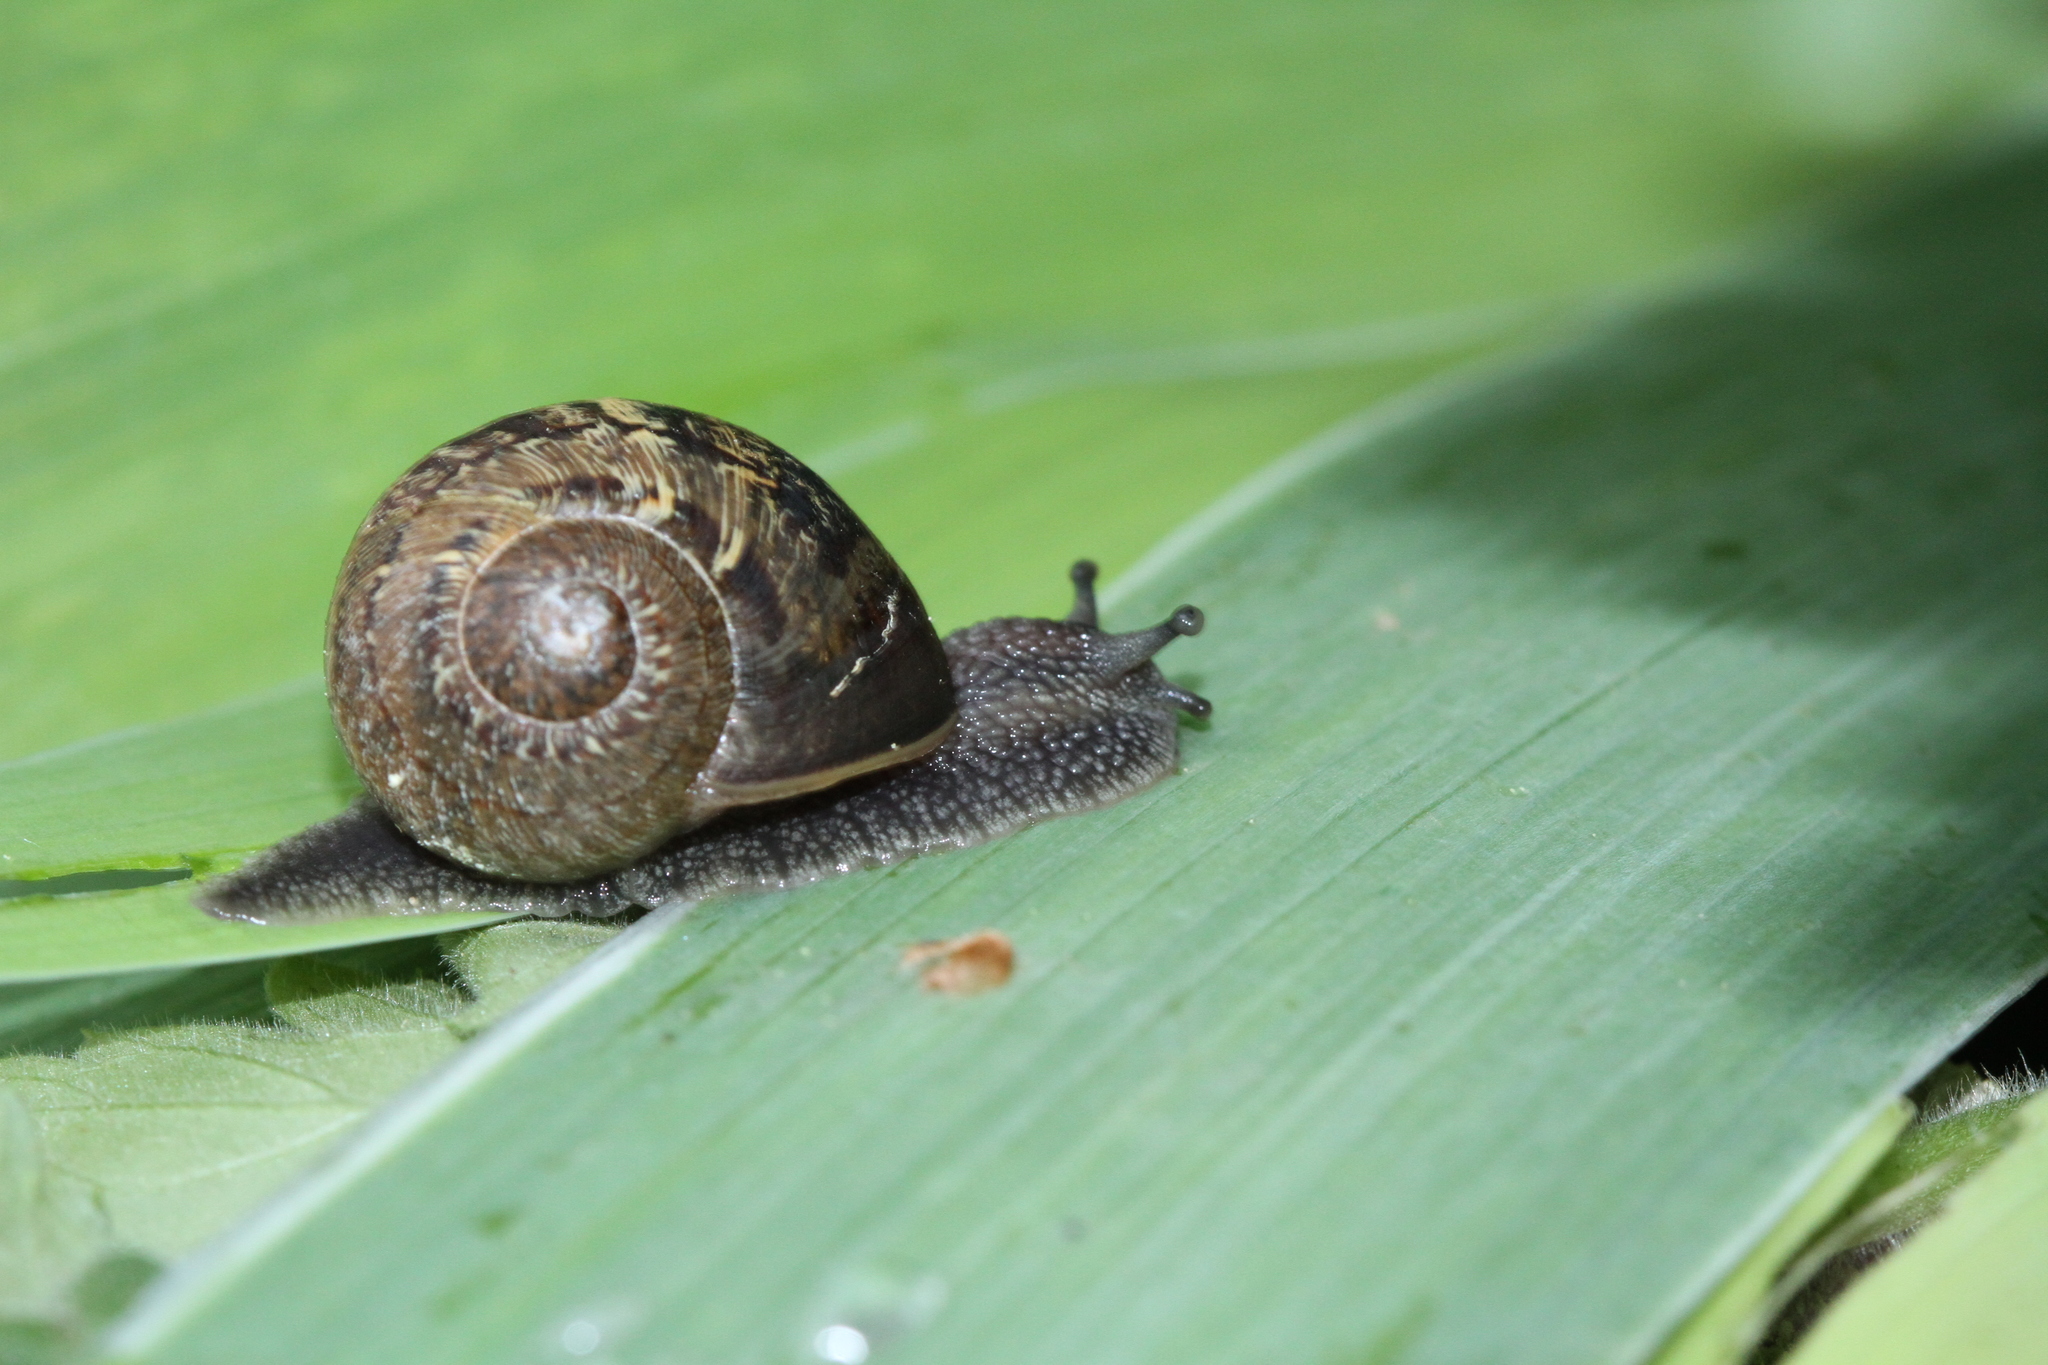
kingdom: Animalia
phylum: Mollusca
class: Gastropoda
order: Stylommatophora
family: Helicidae
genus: Cornu
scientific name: Cornu aspersum
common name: Brown garden snail
